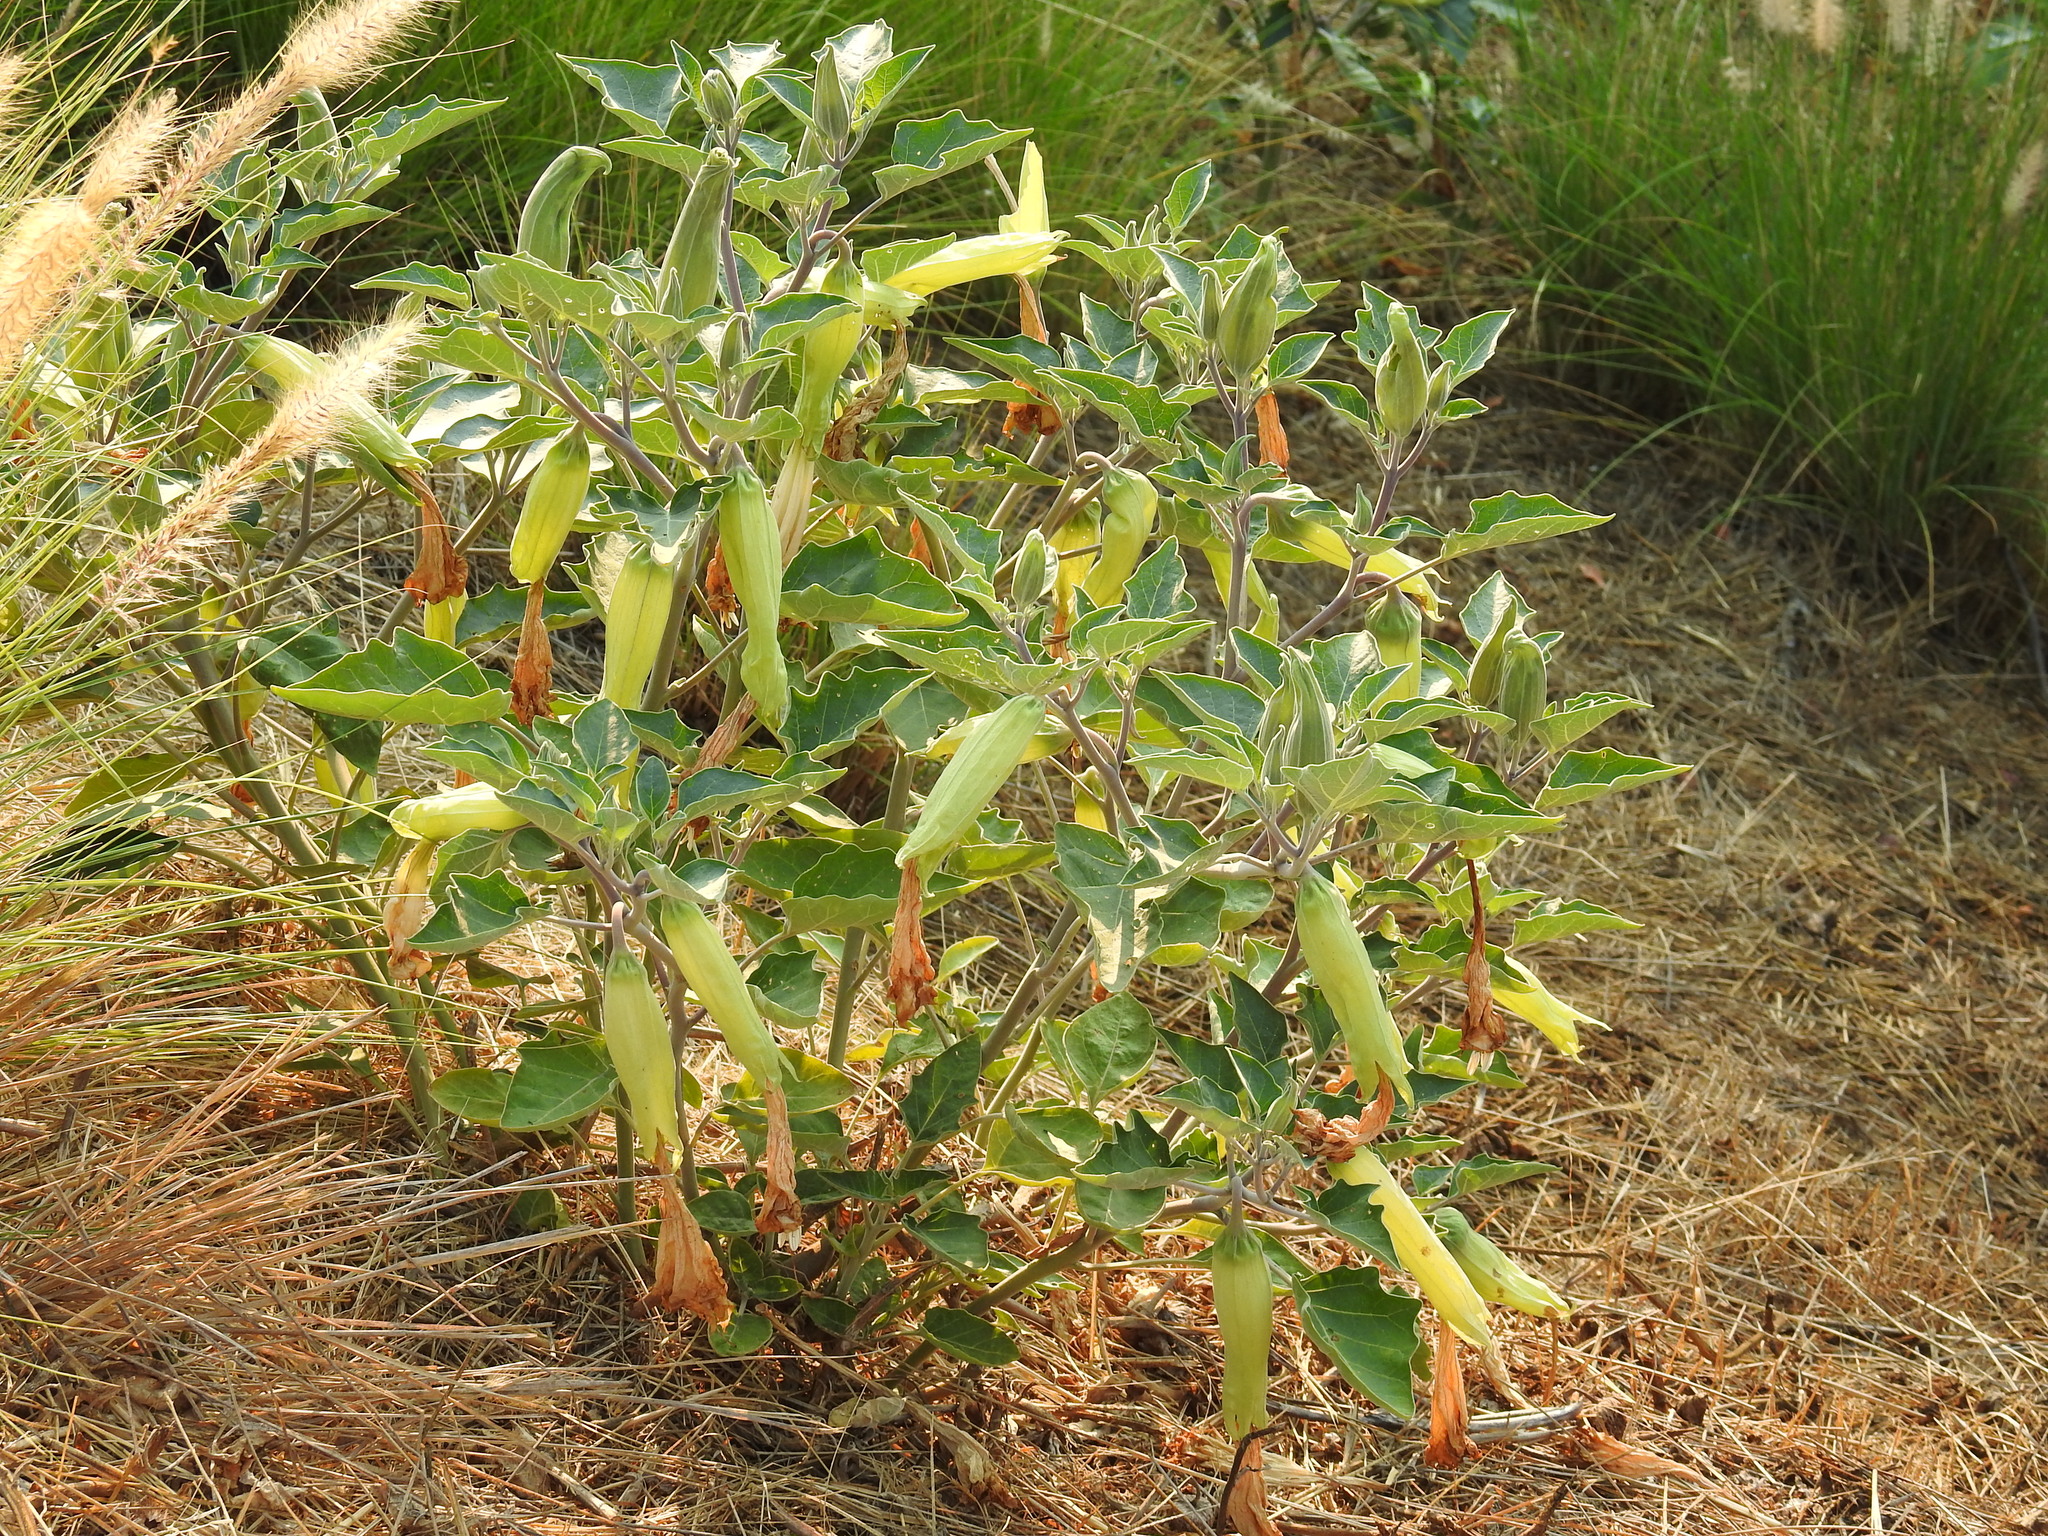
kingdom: Plantae
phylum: Tracheophyta
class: Magnoliopsida
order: Solanales
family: Solanaceae
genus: Datura
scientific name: Datura wrightii
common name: Sacred thorn-apple
